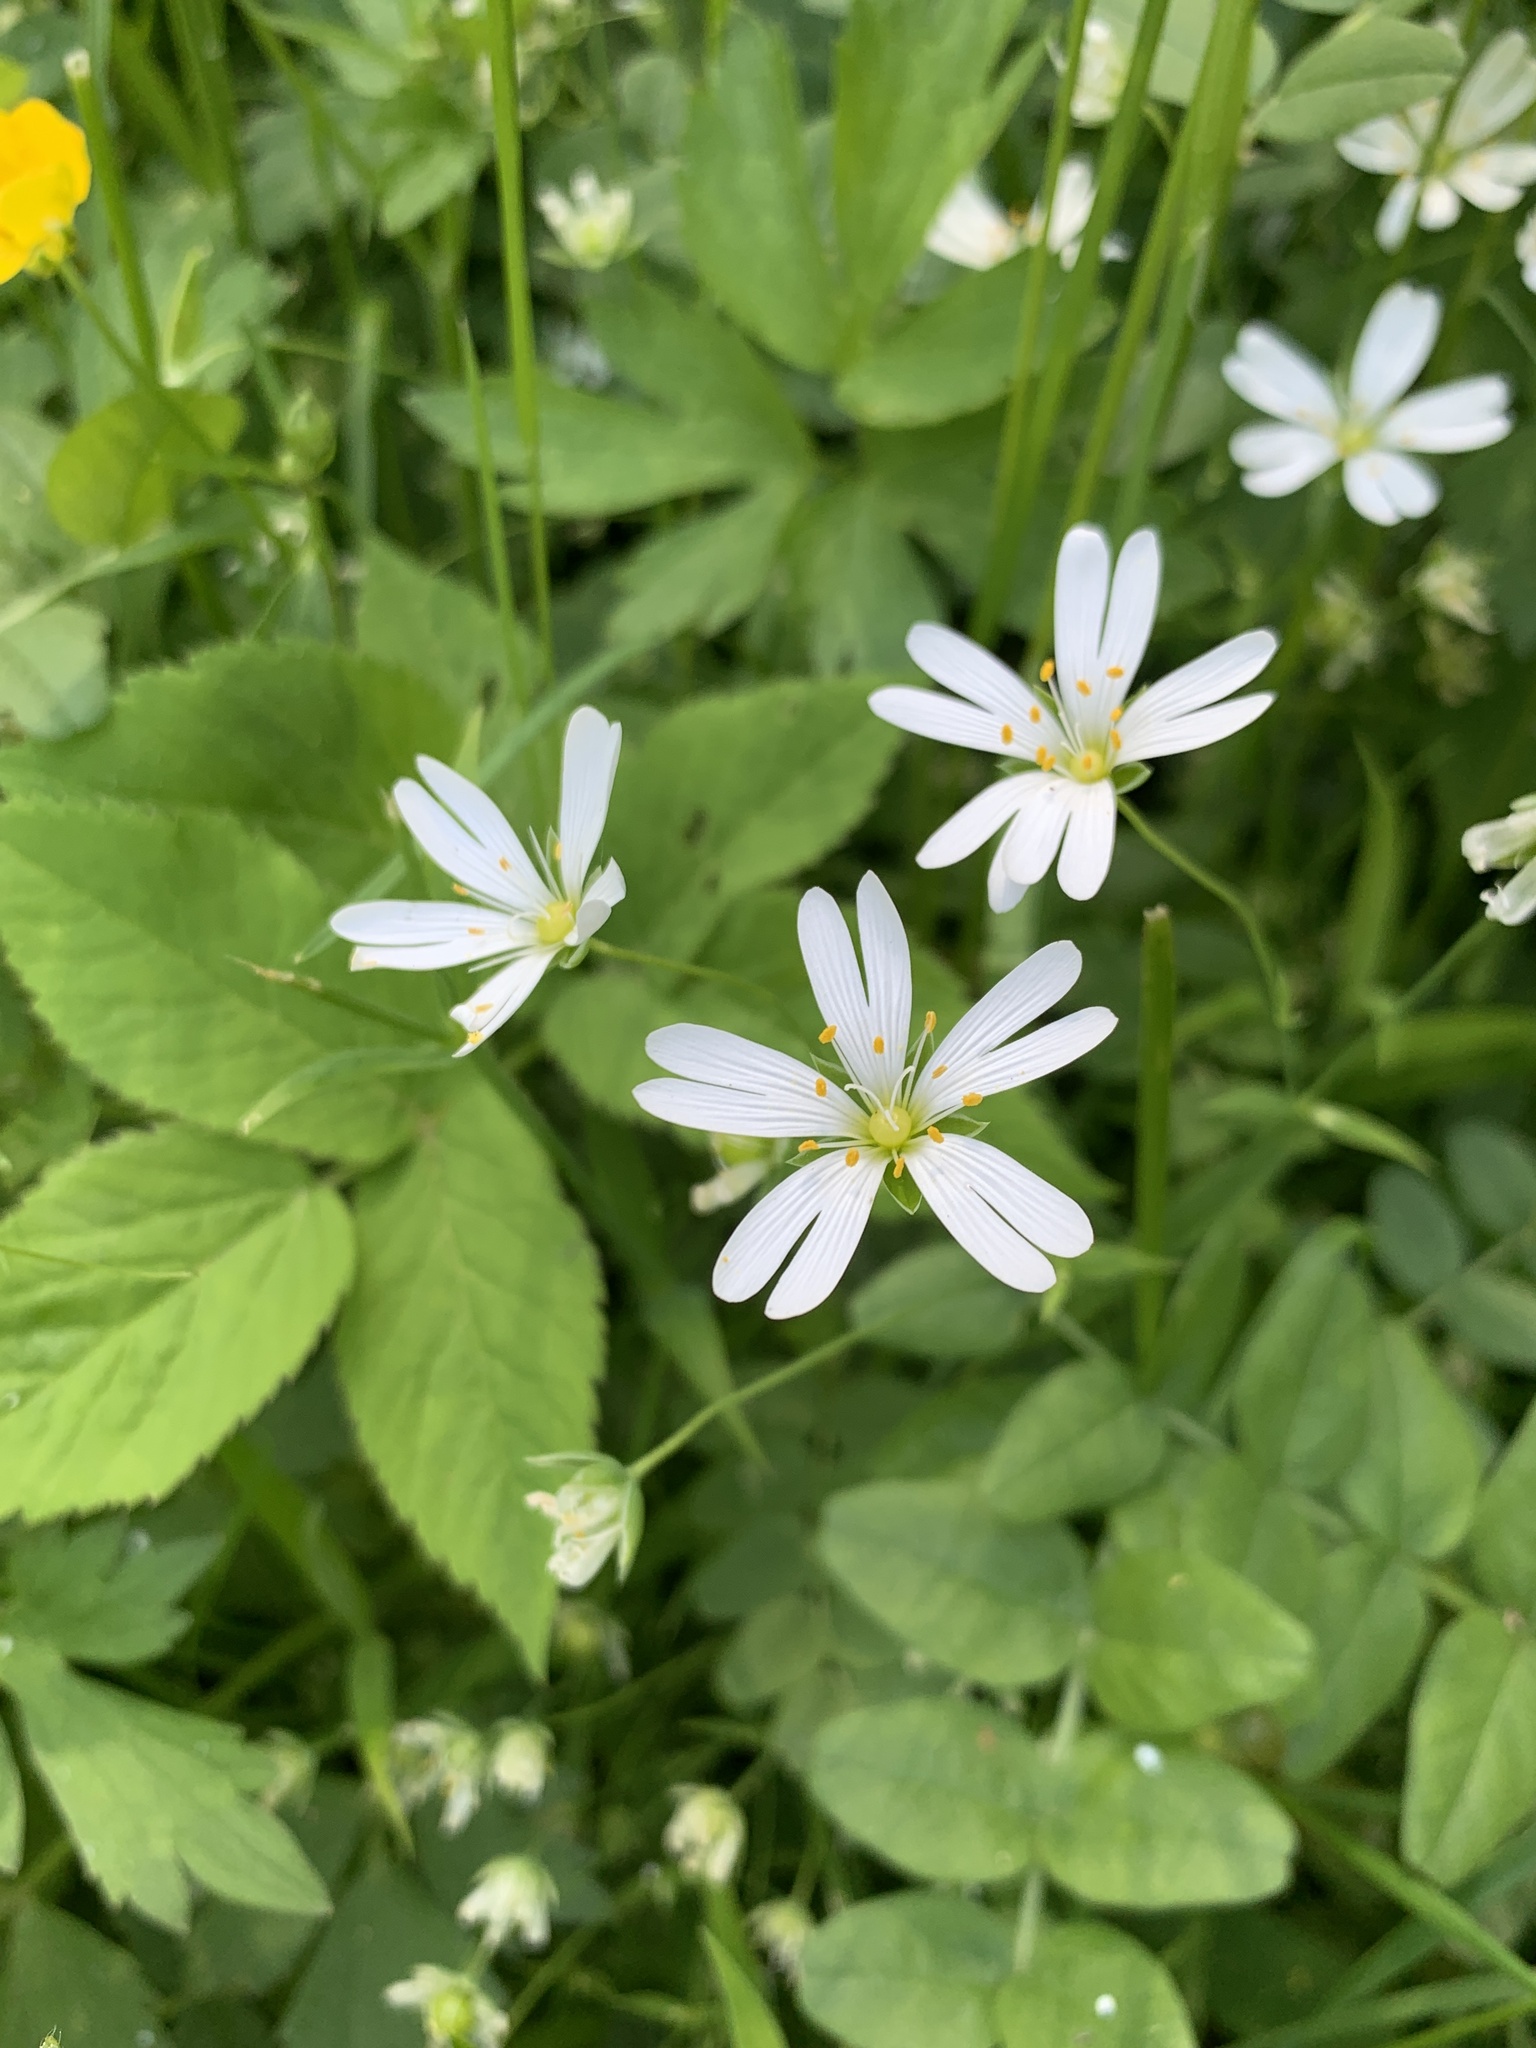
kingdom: Plantae
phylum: Tracheophyta
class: Magnoliopsida
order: Caryophyllales
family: Caryophyllaceae
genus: Rabelera
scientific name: Rabelera holostea
